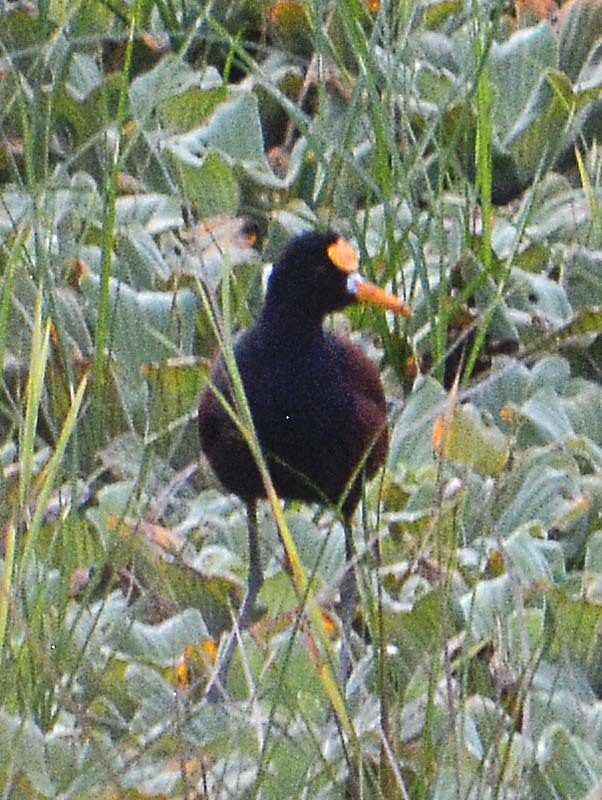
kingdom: Animalia
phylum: Chordata
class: Aves
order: Charadriiformes
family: Jacanidae
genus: Jacana
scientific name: Jacana spinosa
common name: Northern jacana
